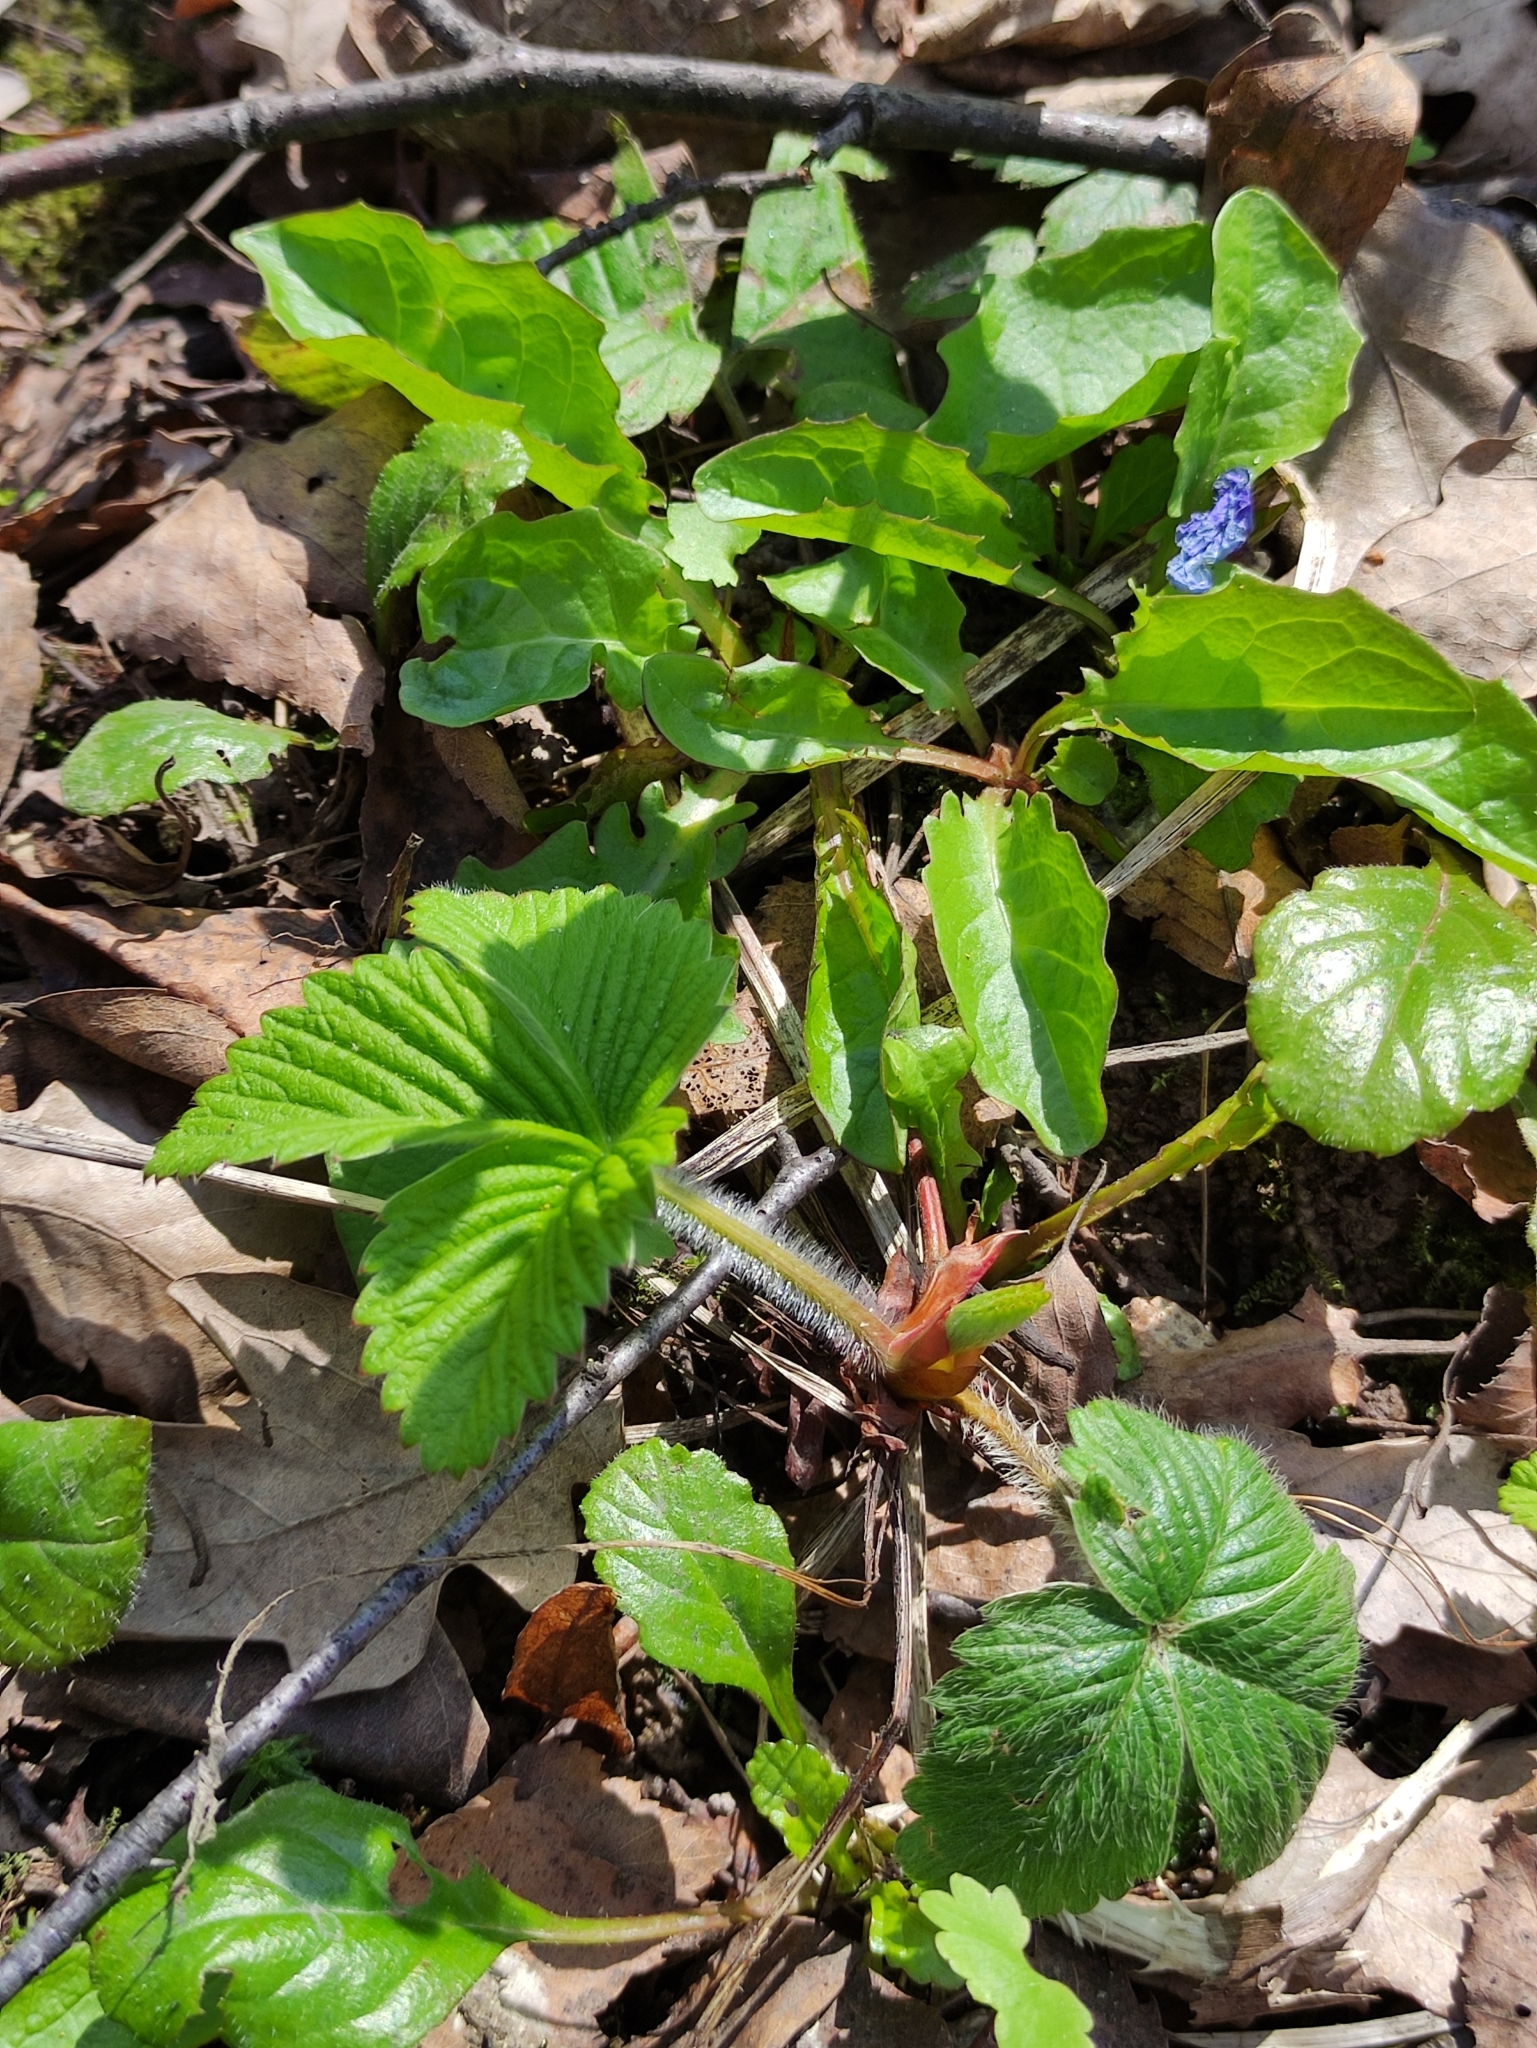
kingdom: Plantae
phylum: Tracheophyta
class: Magnoliopsida
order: Rosales
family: Rosaceae
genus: Fragaria
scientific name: Fragaria vesca
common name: Wild strawberry
